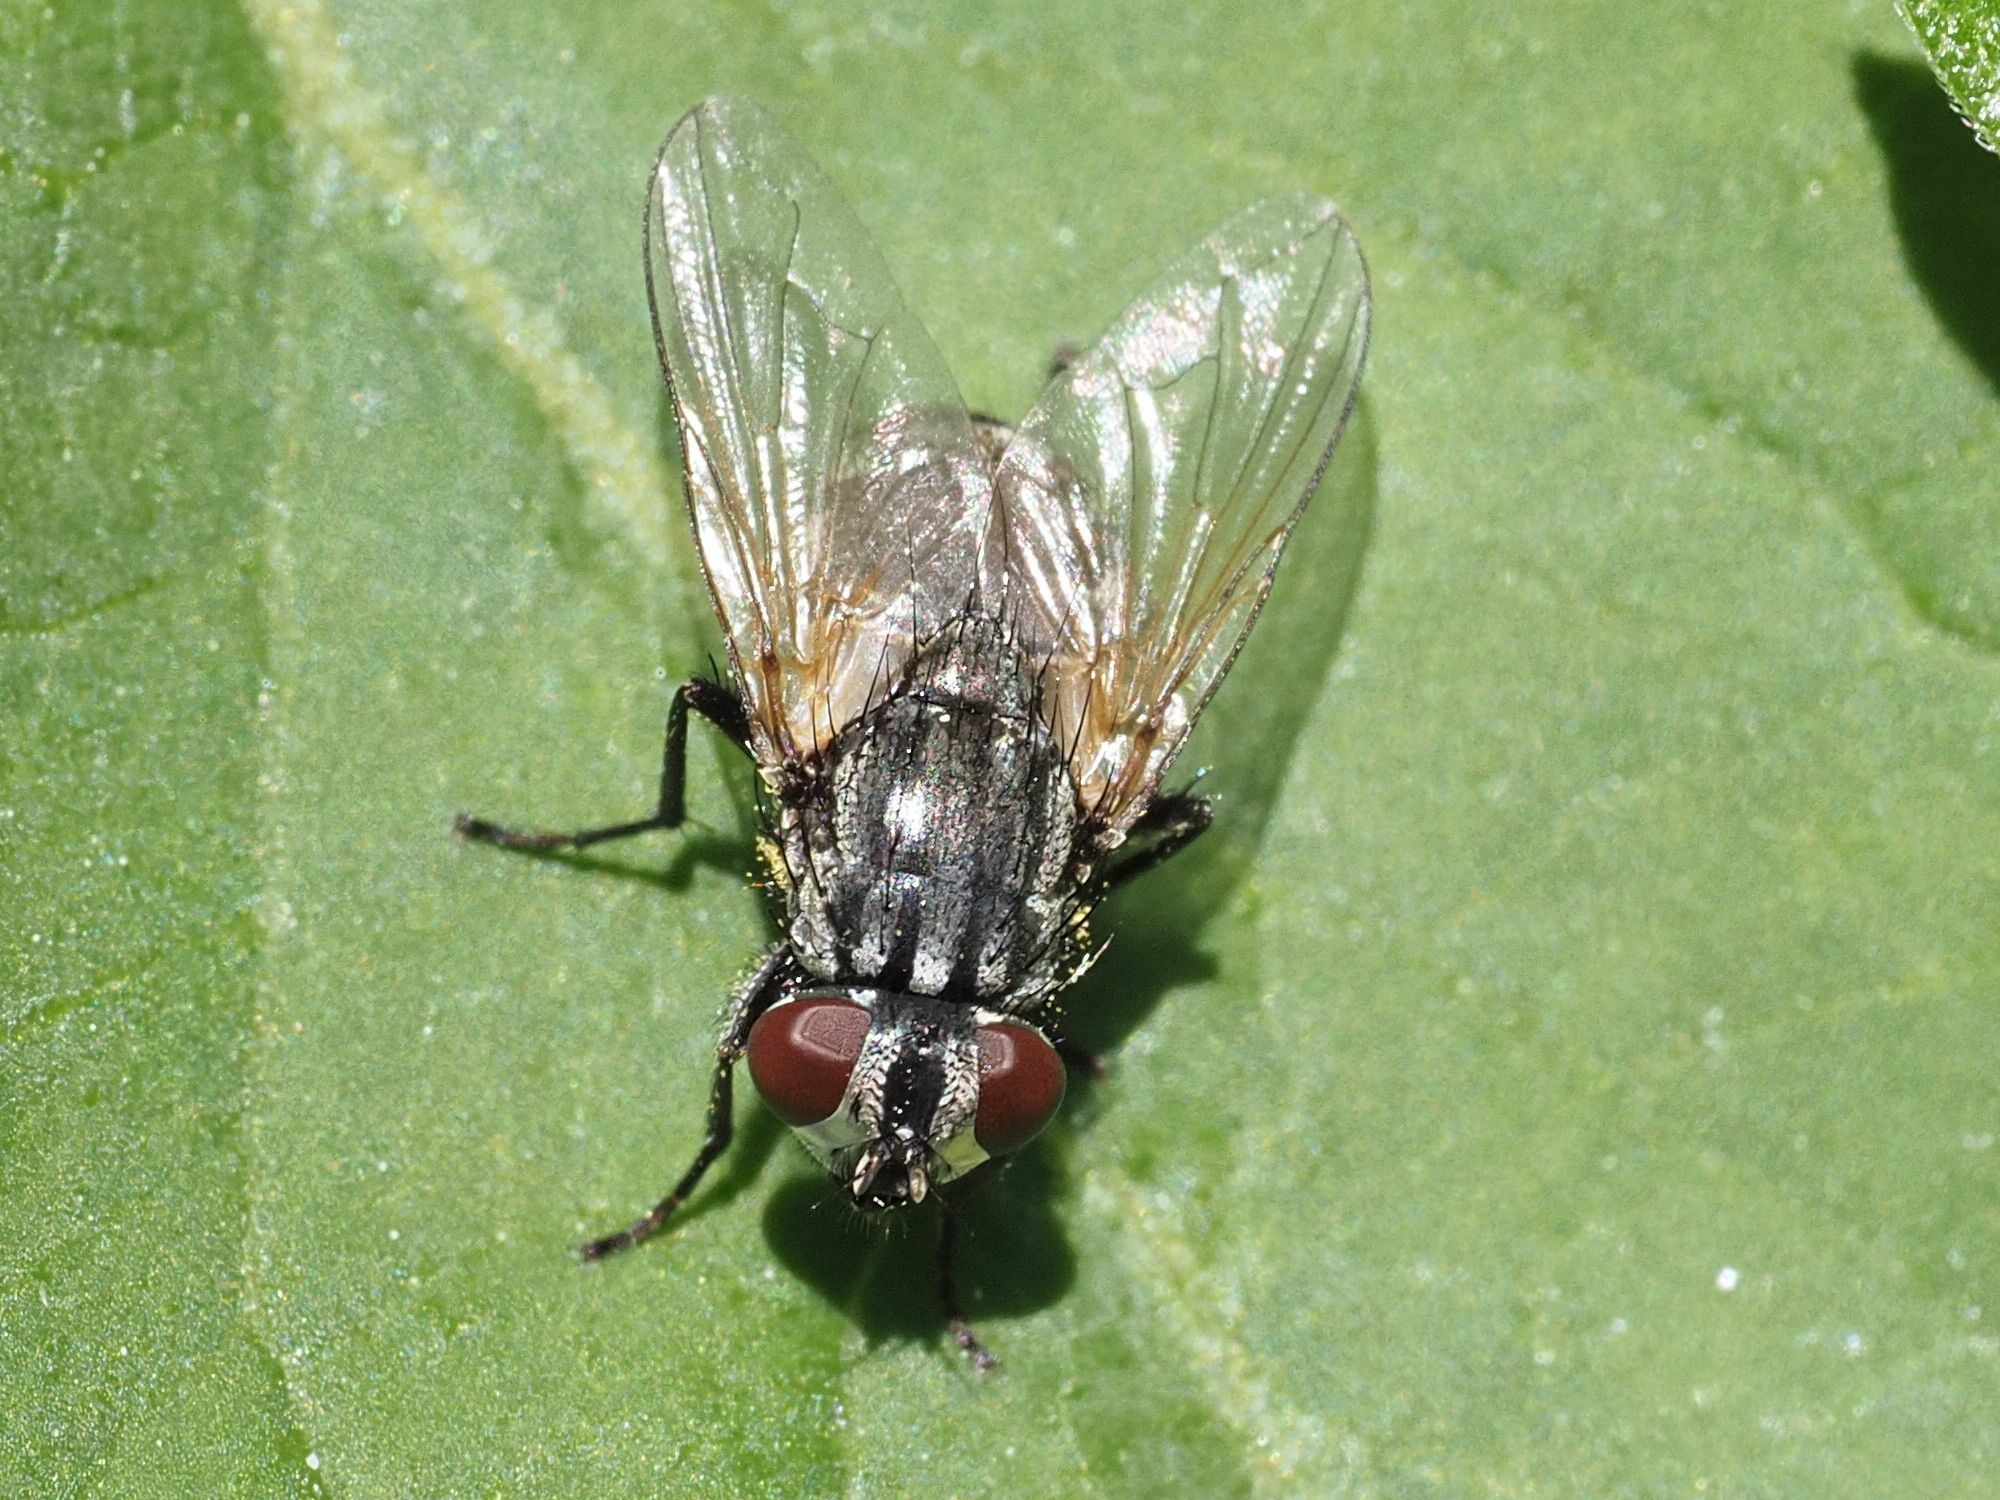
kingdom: Animalia
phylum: Arthropoda
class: Insecta
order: Diptera
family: Muscidae
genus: Musca
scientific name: Musca autumnalis
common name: Face fly
